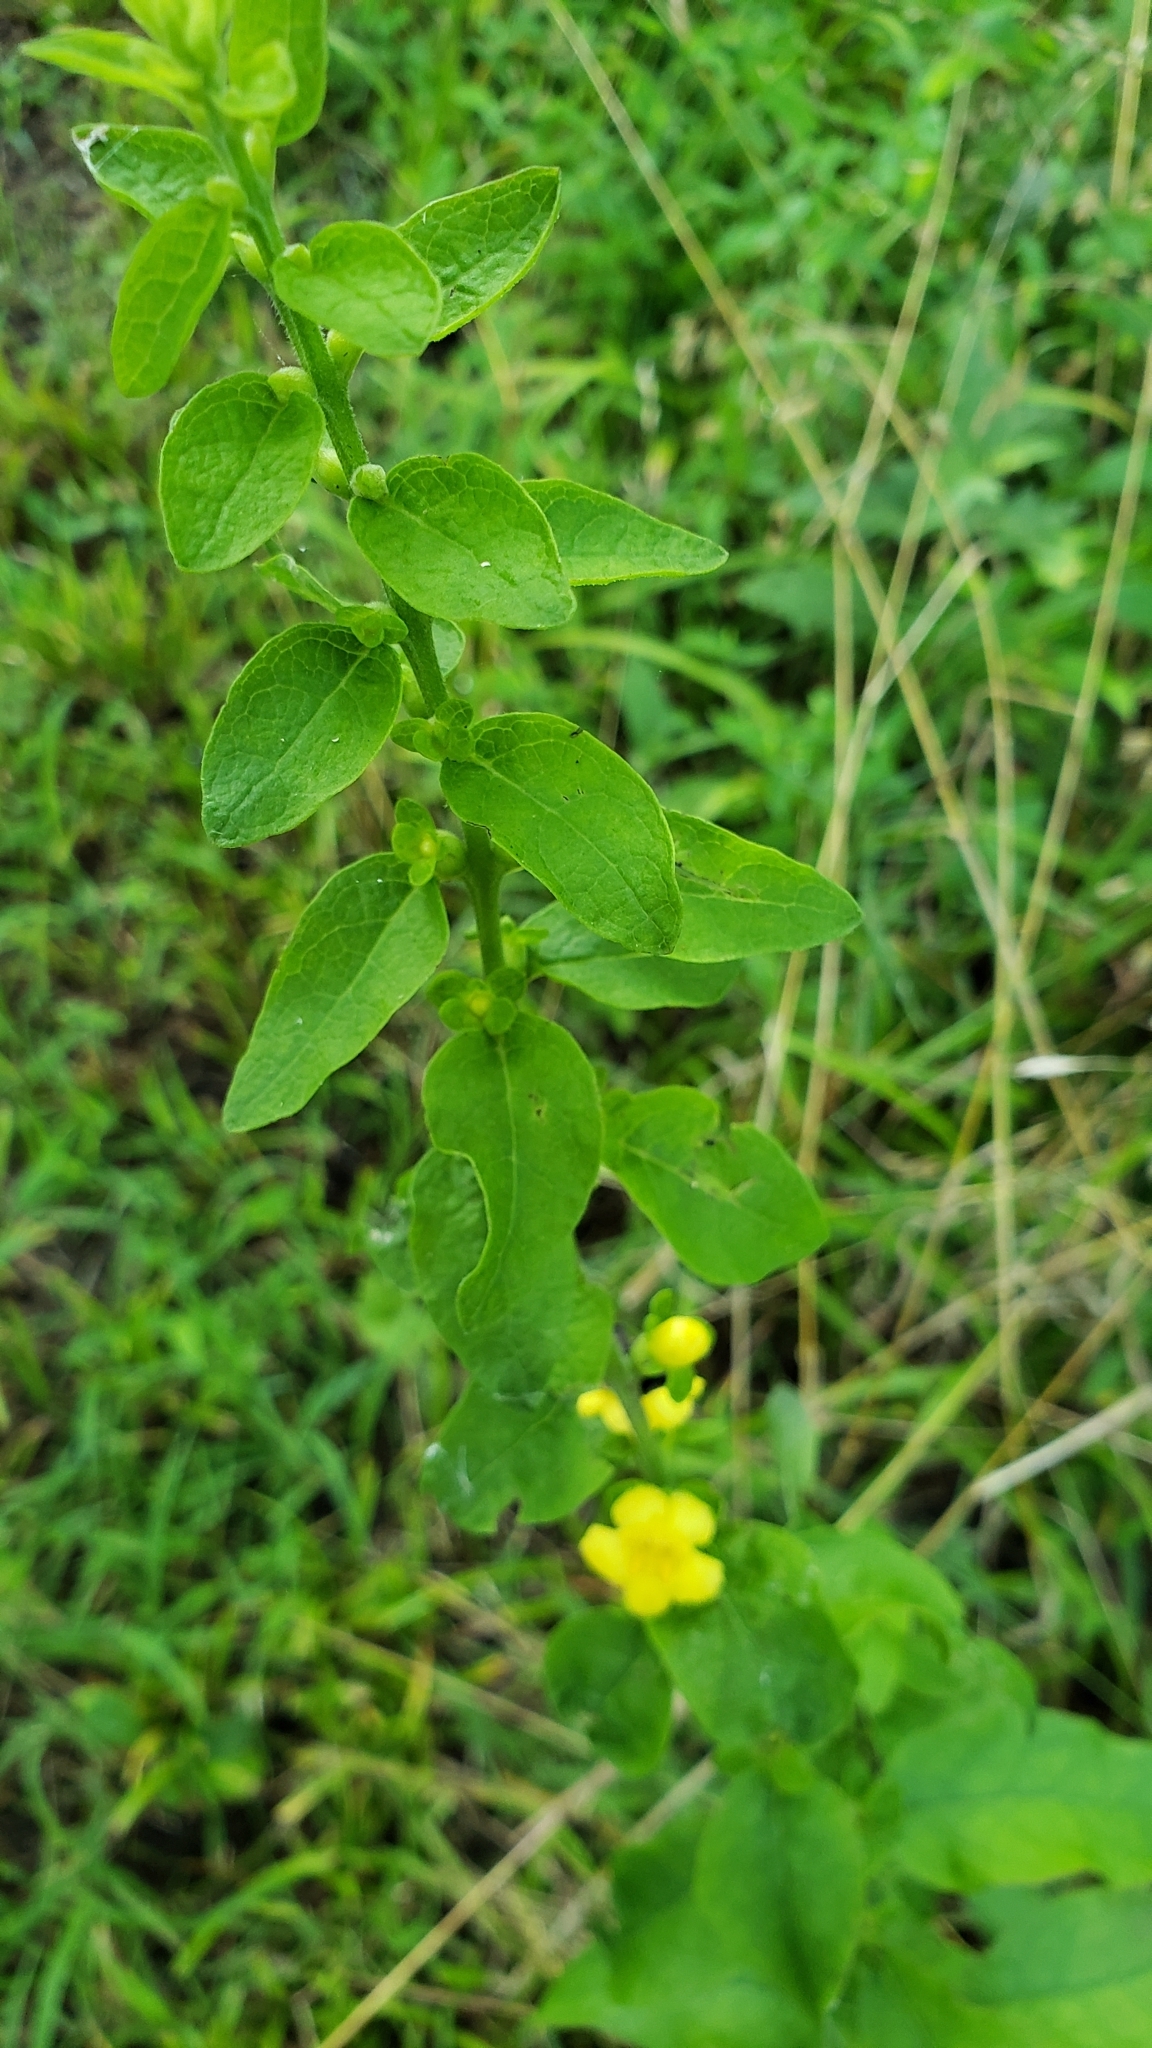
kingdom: Plantae
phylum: Tracheophyta
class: Magnoliopsida
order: Lamiales
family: Orobanchaceae
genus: Dasistoma
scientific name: Dasistoma macrophyllum
